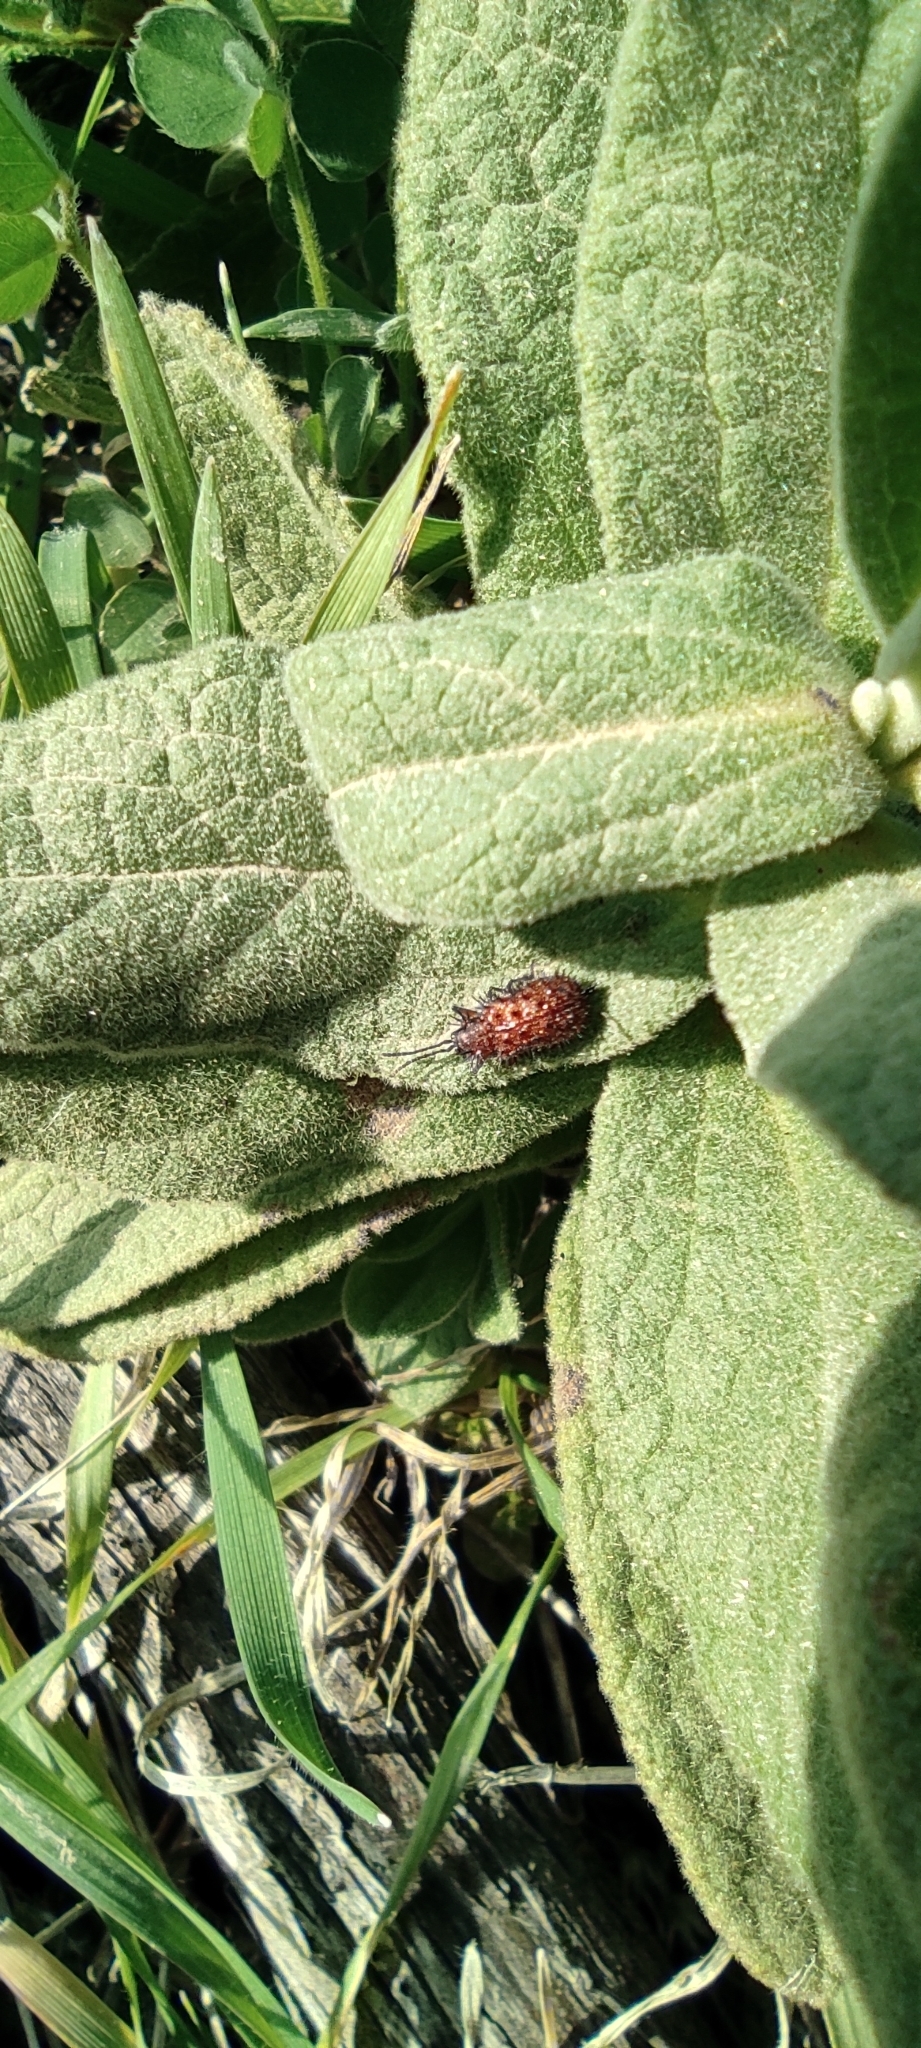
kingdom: Plantae
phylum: Tracheophyta
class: Magnoliopsida
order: Malvales
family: Cistaceae
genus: Cistus
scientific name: Cistus albidus
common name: White-leaf rock-rose
